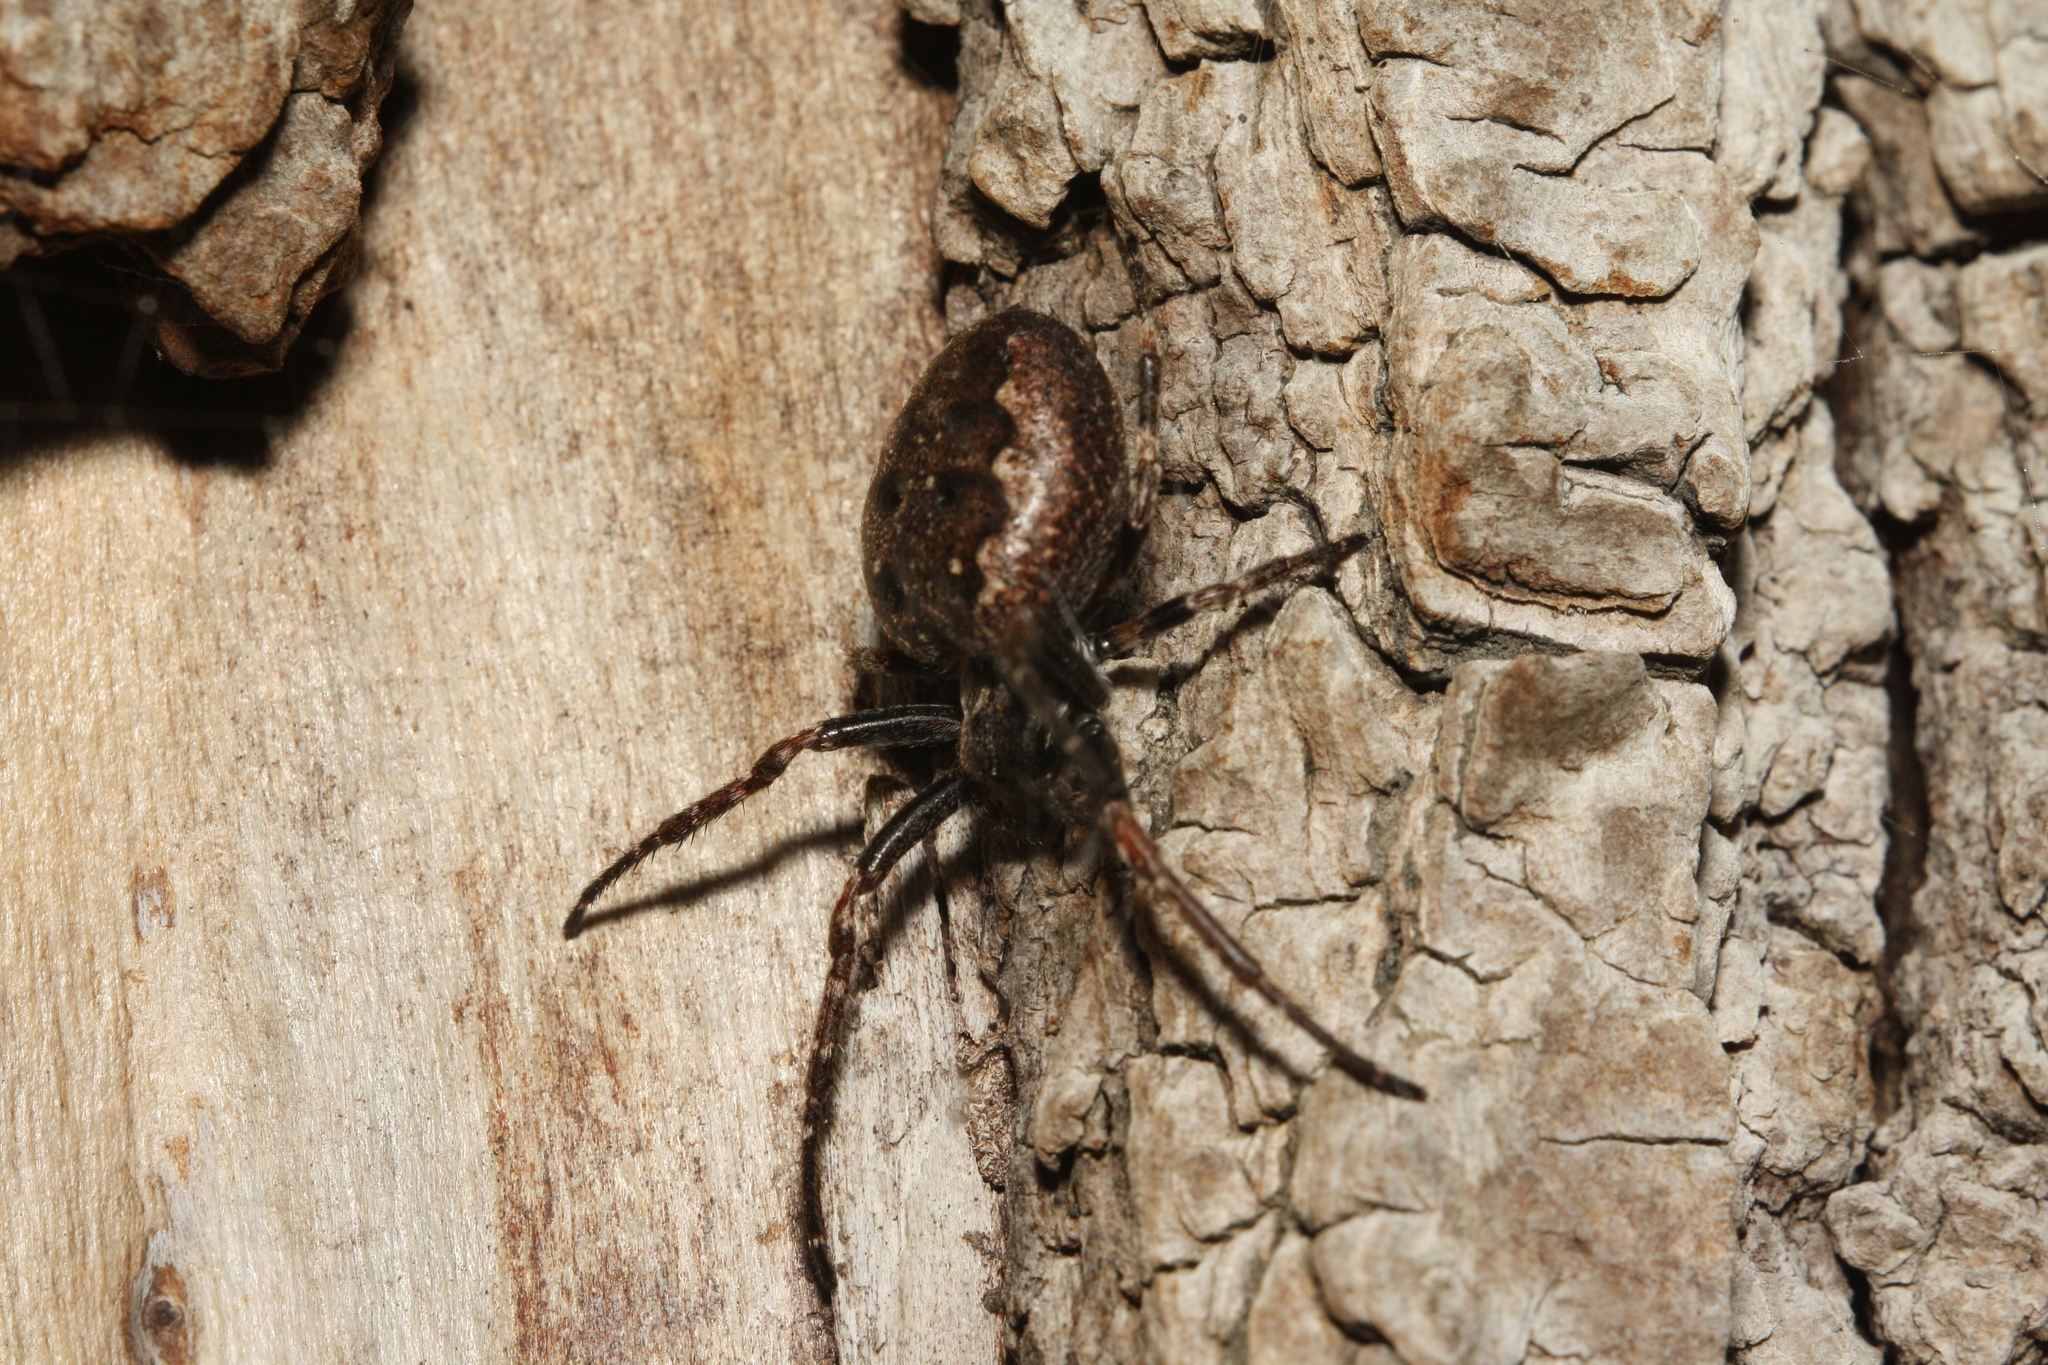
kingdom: Animalia
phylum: Arthropoda
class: Arachnida
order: Araneae
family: Araneidae
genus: Nuctenea
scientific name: Nuctenea umbratica
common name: Toad spider
